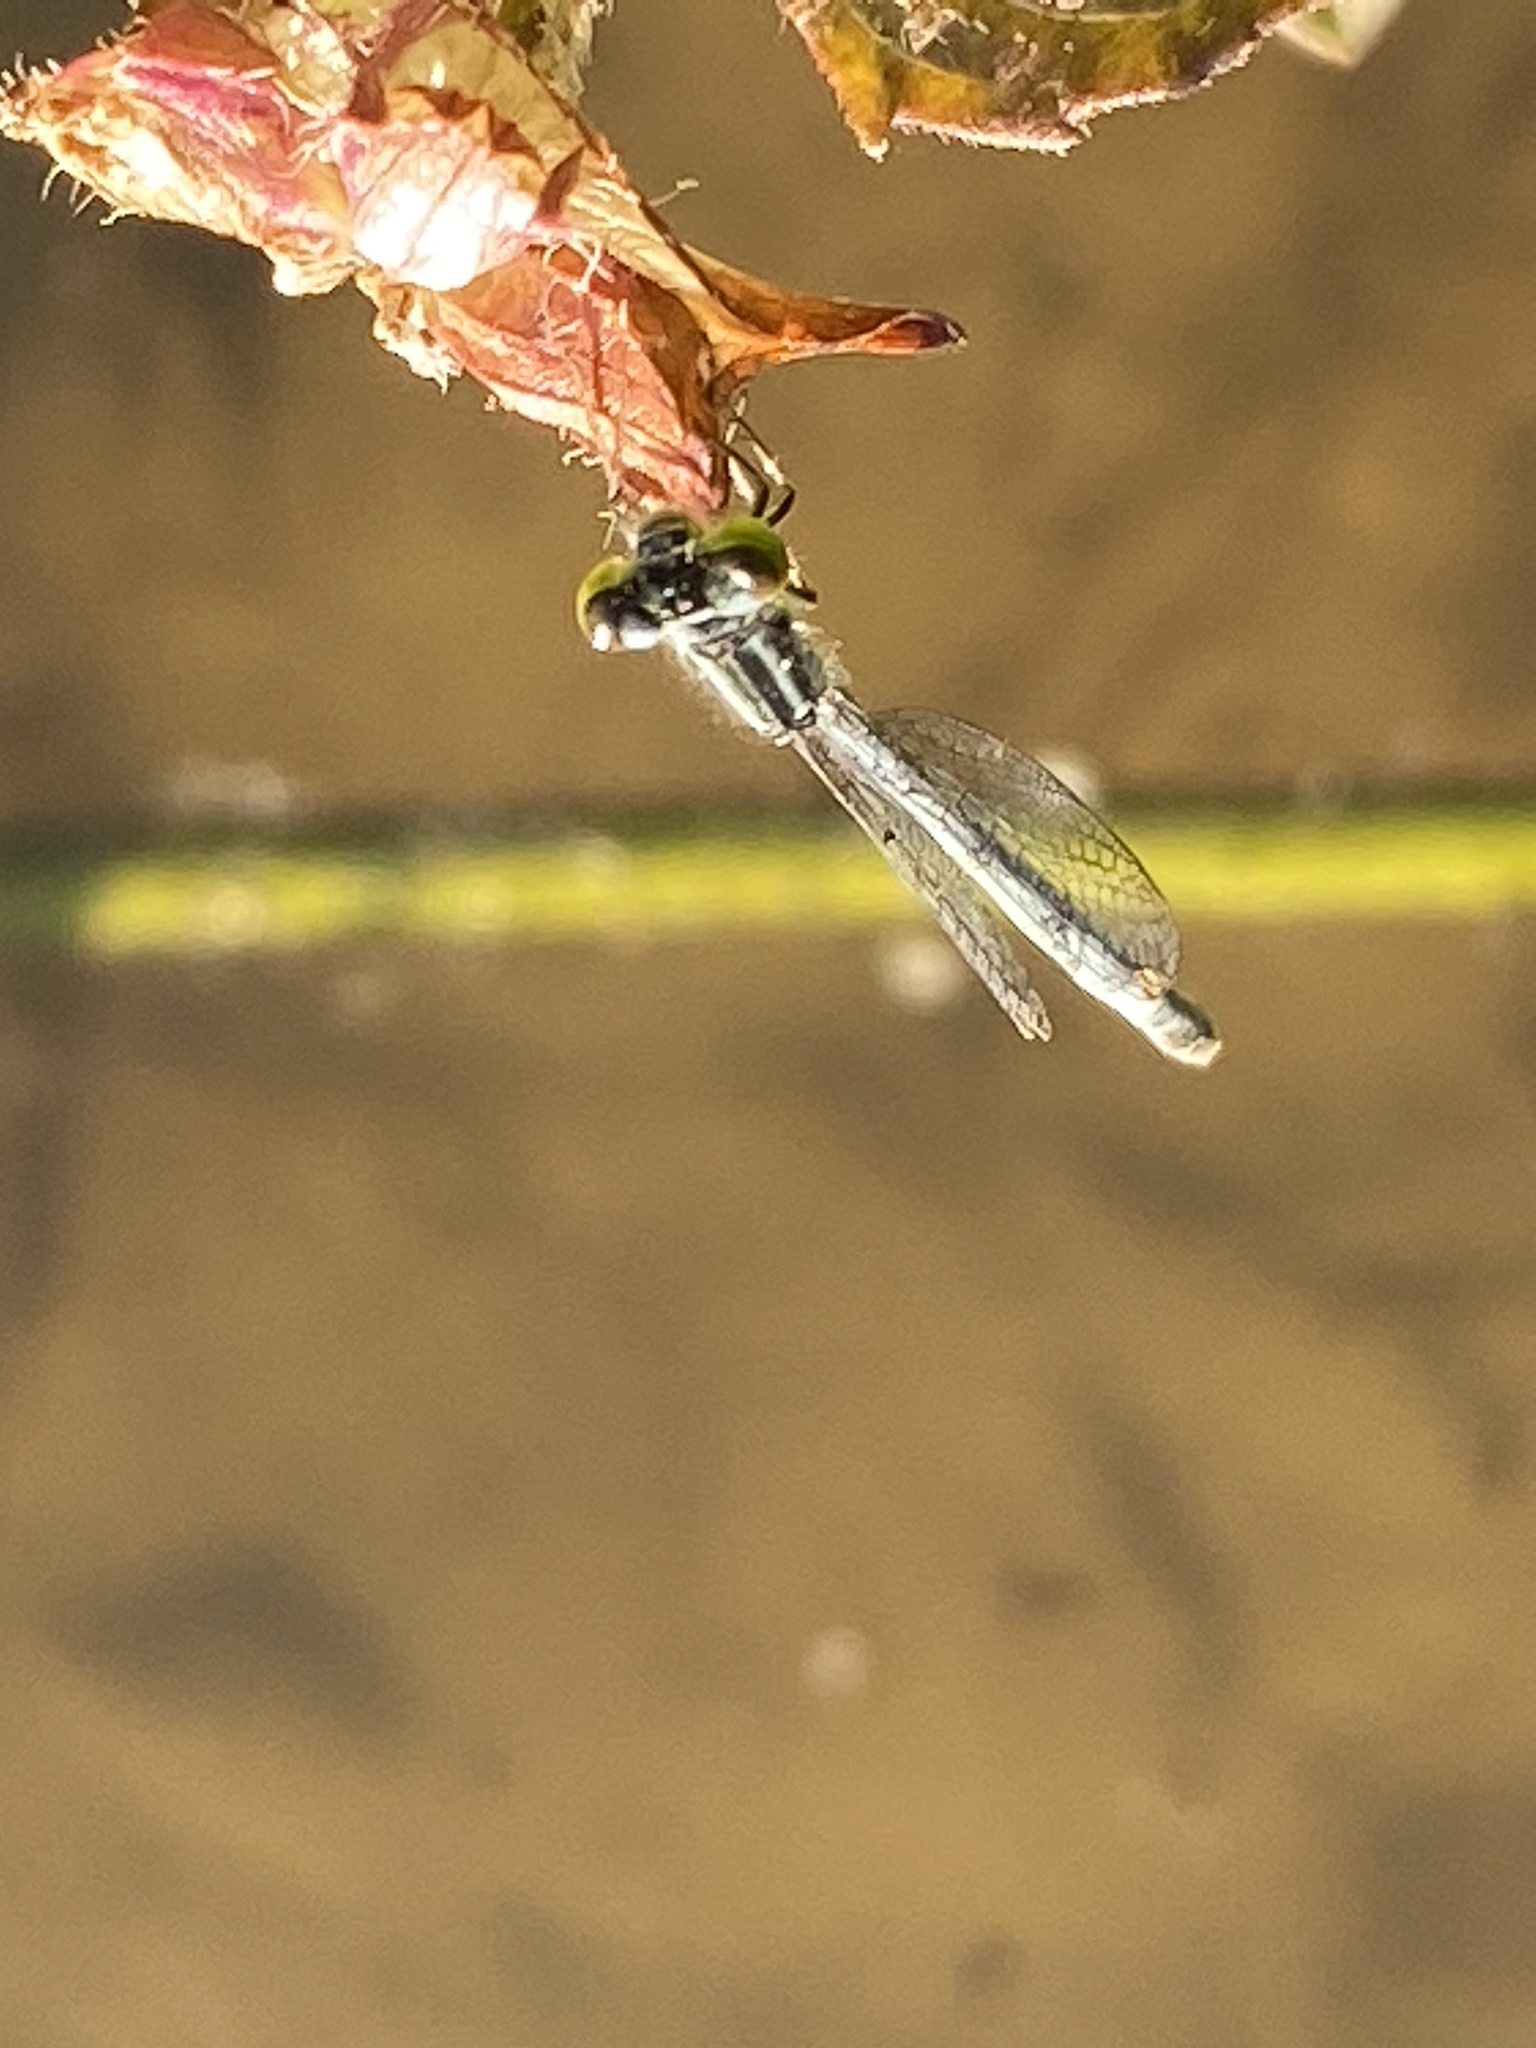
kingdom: Animalia
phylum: Arthropoda
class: Insecta
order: Odonata
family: Coenagrionidae
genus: Ischnura
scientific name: Ischnura verticalis
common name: Eastern forktail
